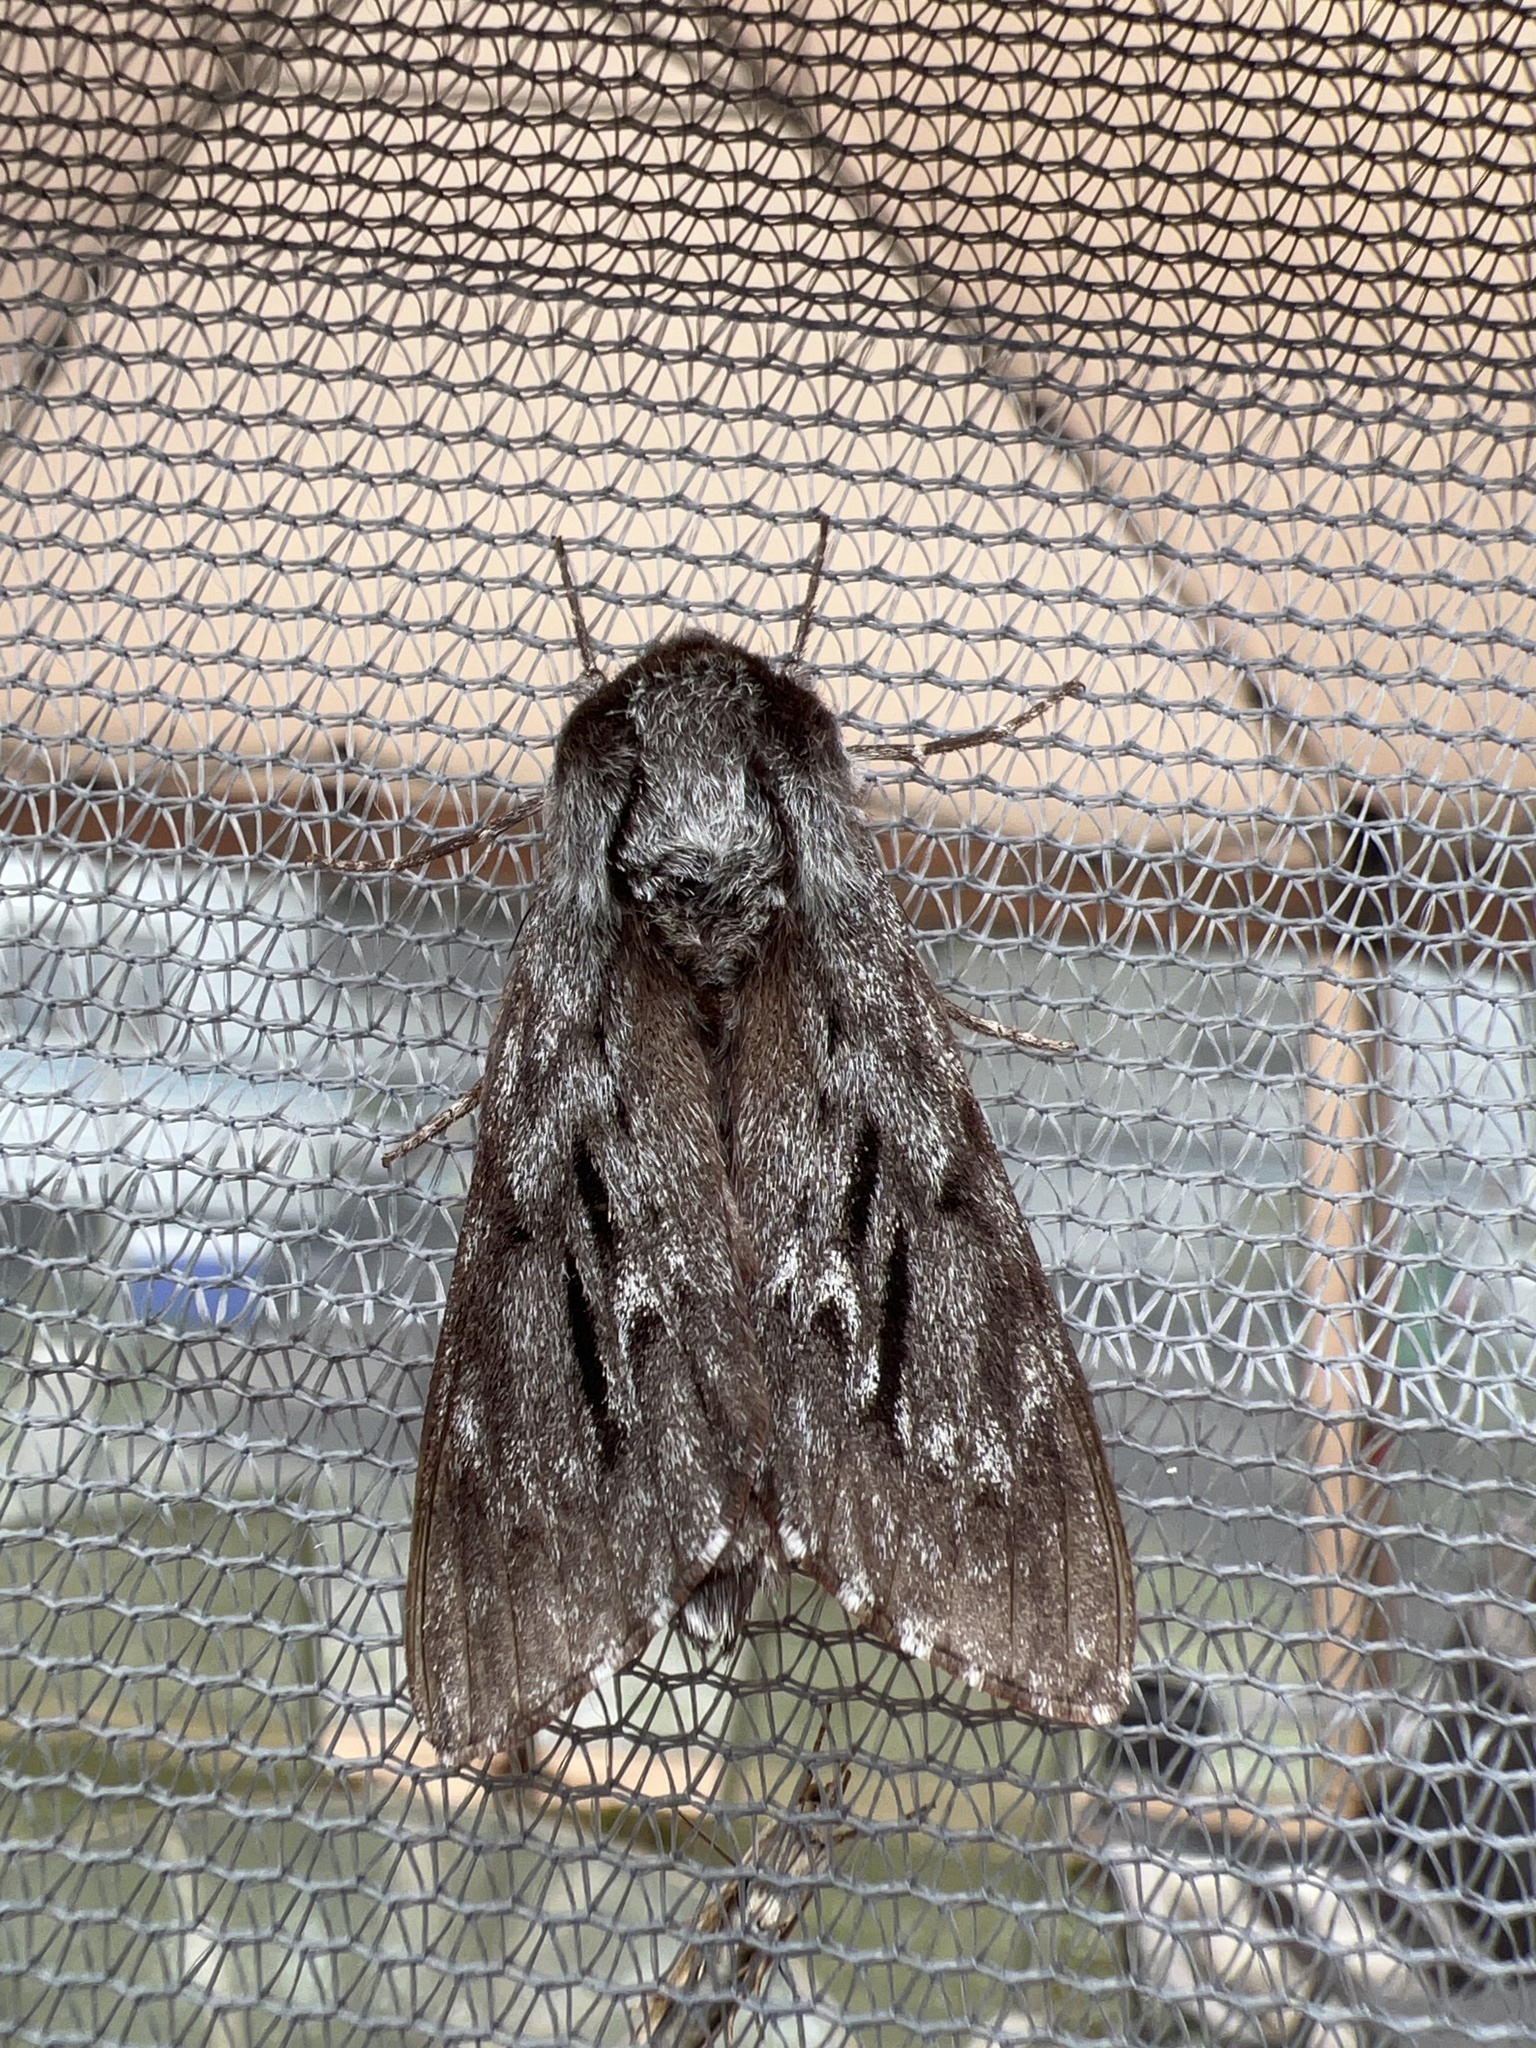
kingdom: Animalia
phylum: Arthropoda
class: Insecta
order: Lepidoptera
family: Sphingidae
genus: Lapara
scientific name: Lapara bombycoides
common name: Northern pine sphinx
